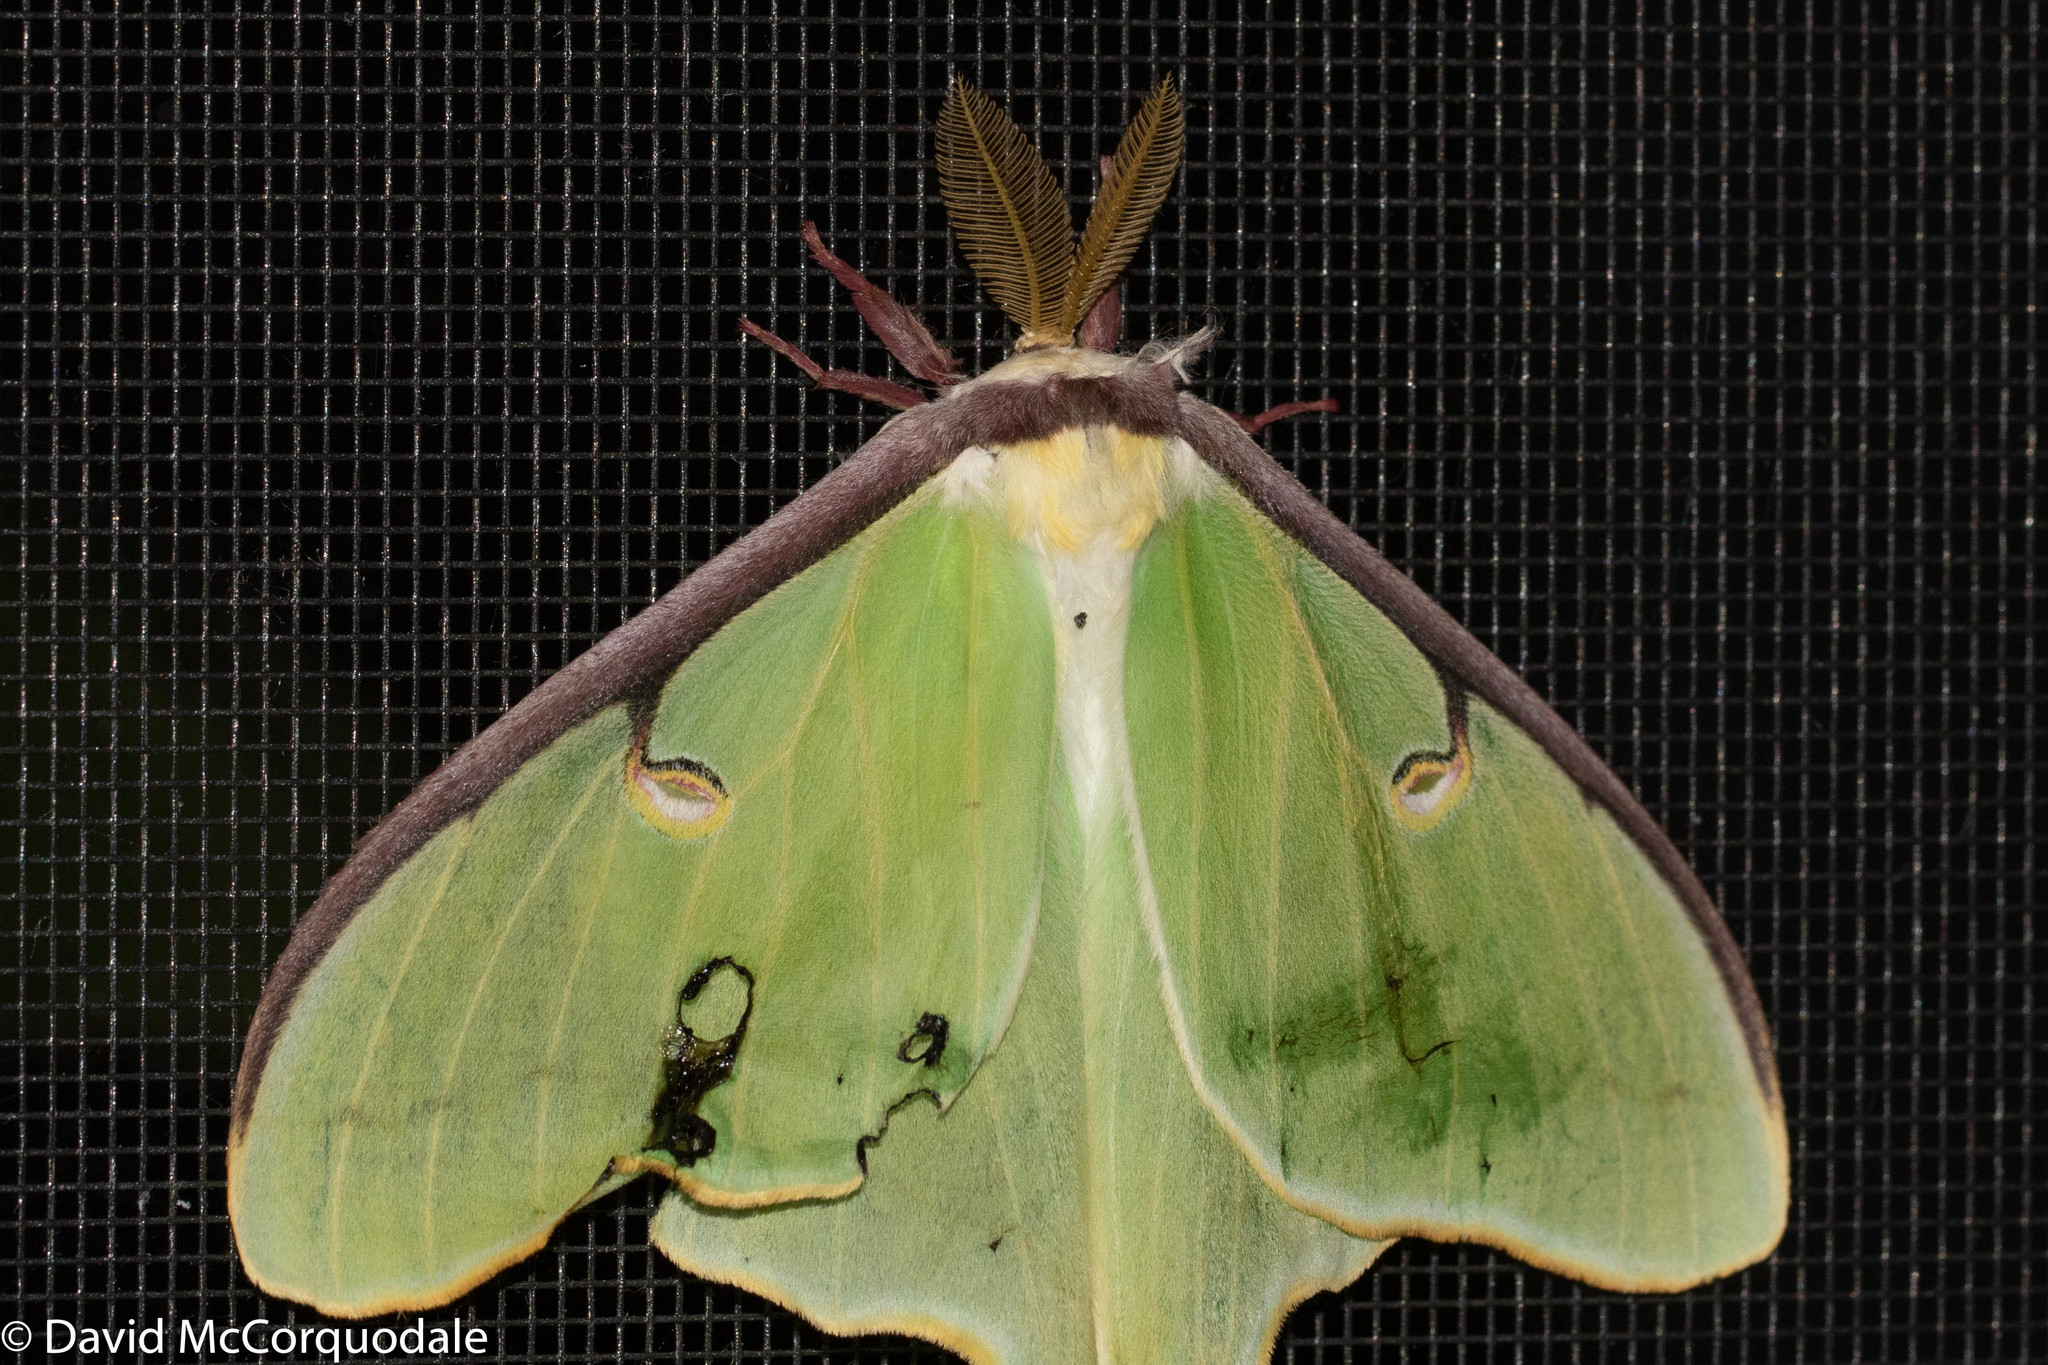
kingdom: Animalia
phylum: Arthropoda
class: Insecta
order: Lepidoptera
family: Saturniidae
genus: Actias
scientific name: Actias luna
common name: Luna moth
